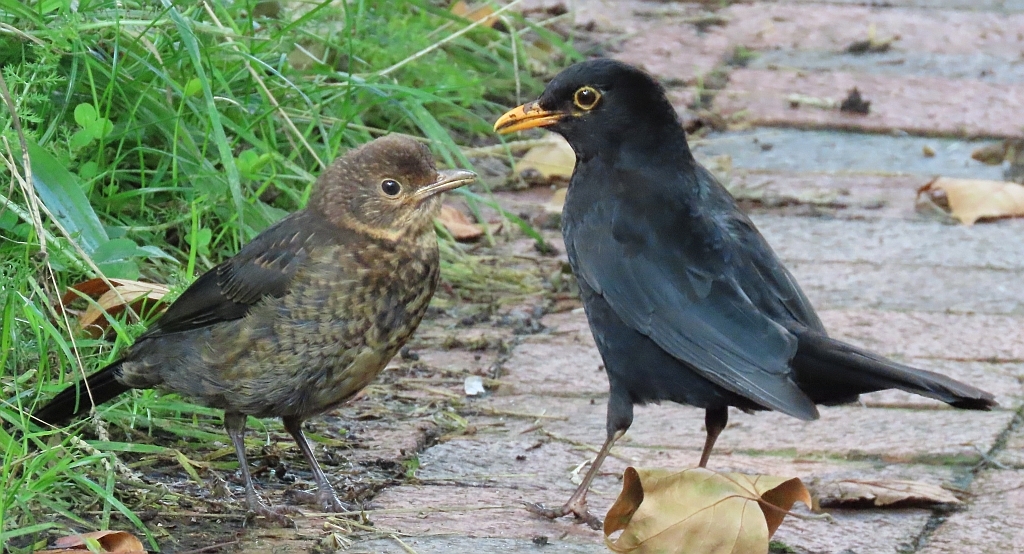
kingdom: Animalia
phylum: Chordata
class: Aves
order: Passeriformes
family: Turdidae
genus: Turdus
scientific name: Turdus merula
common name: Common blackbird
